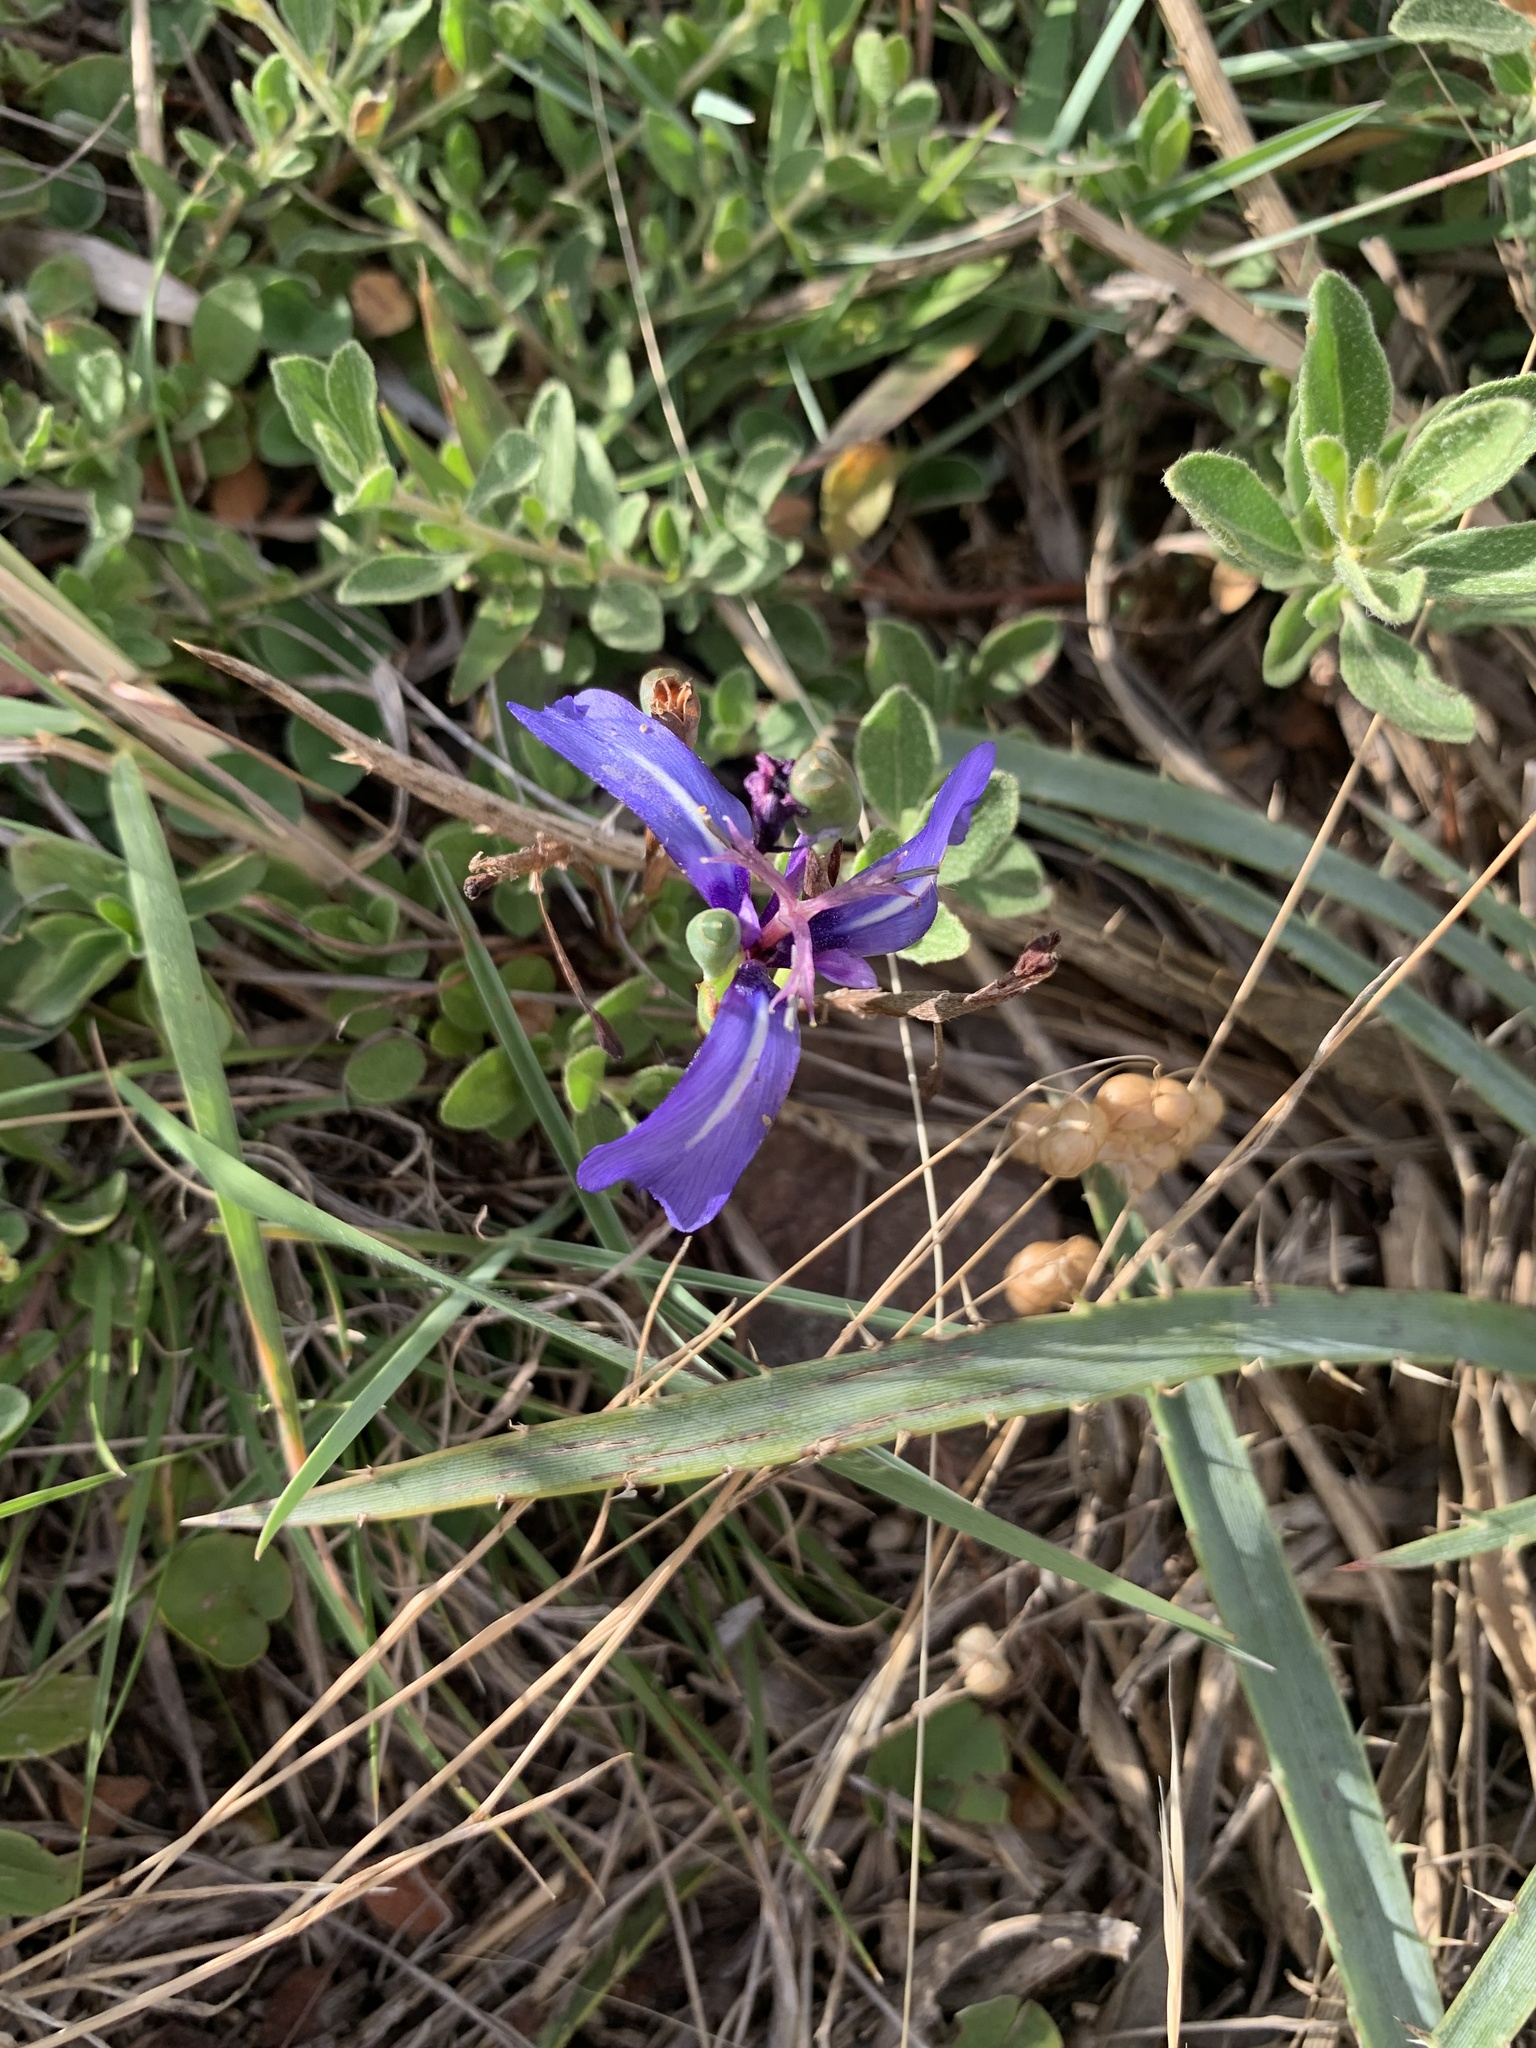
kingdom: Plantae
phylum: Tracheophyta
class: Liliopsida
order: Asparagales
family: Iridaceae
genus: Herbertia
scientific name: Herbertia pulchella
